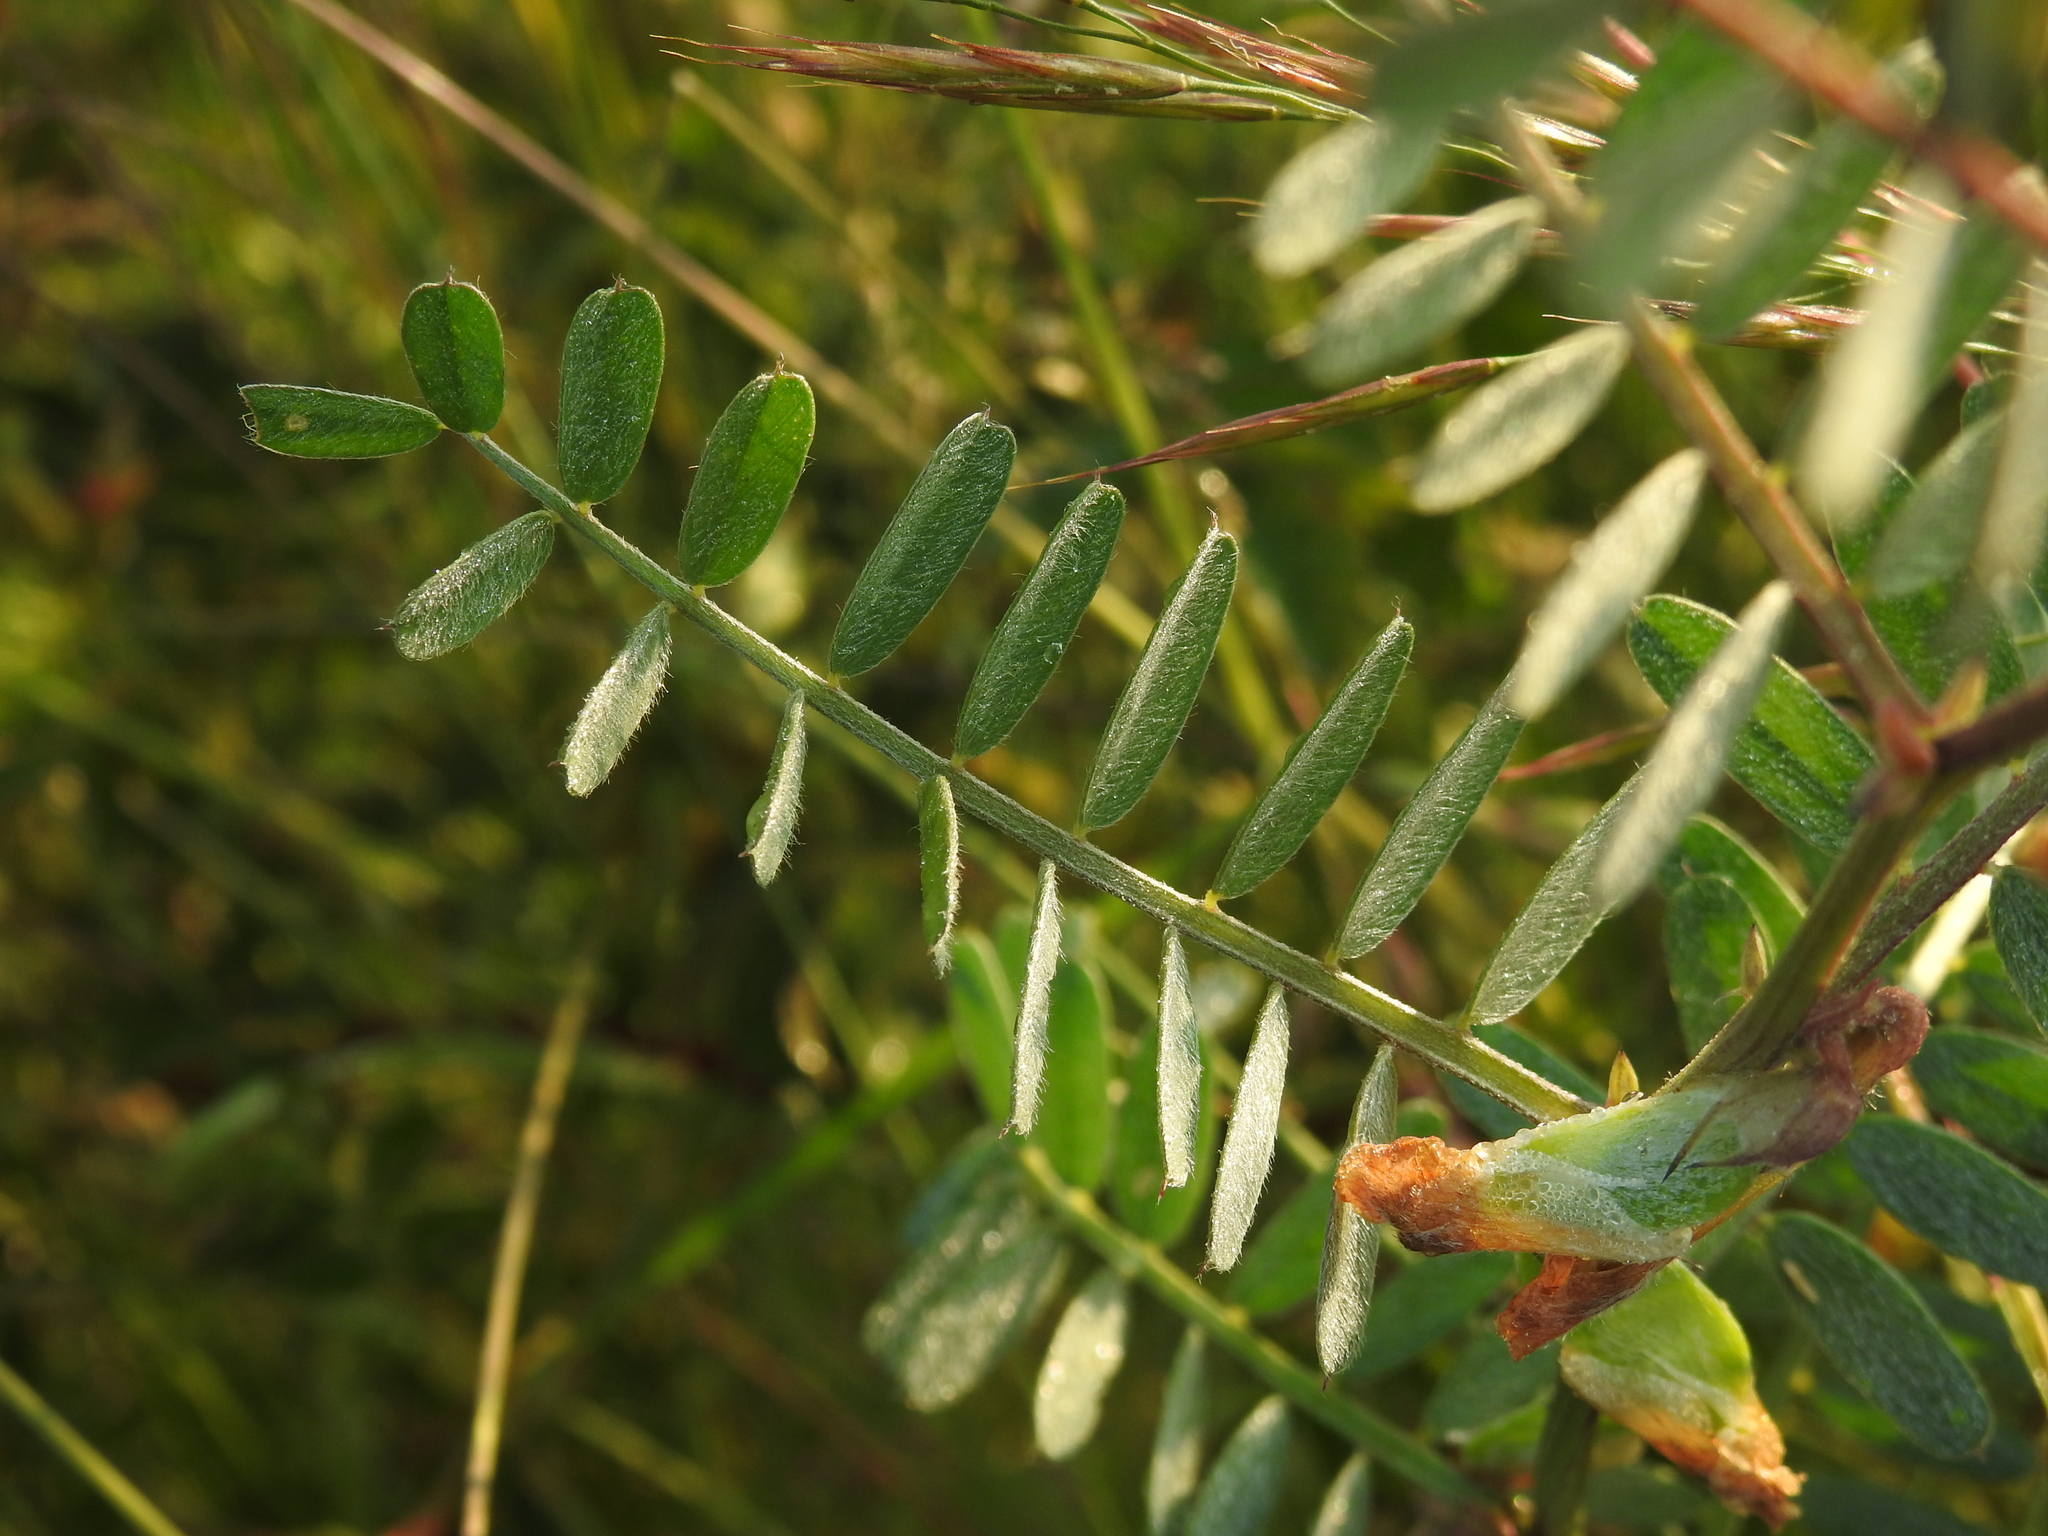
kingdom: Plantae
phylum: Tracheophyta
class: Magnoliopsida
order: Fabales
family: Fabaceae
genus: Vicia
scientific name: Vicia pannonica
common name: Hungarian vetch
